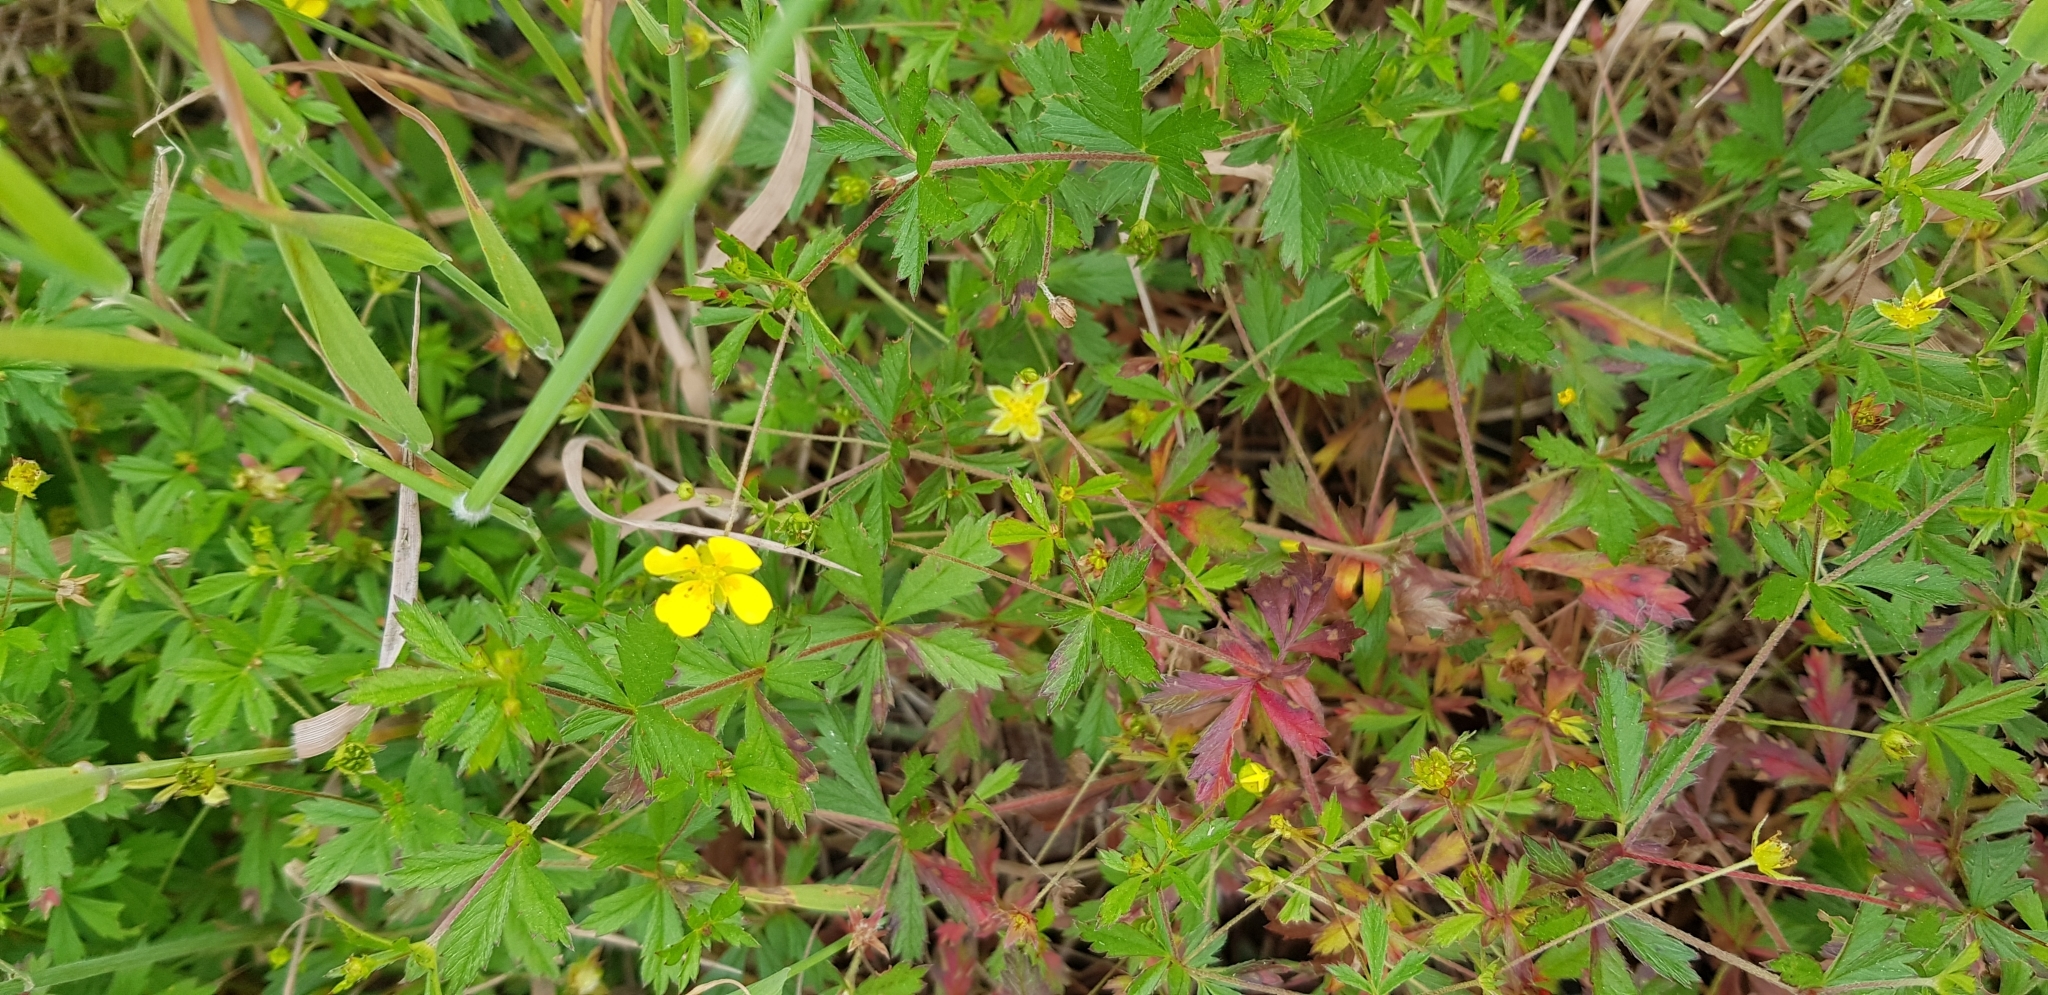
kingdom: Plantae
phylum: Tracheophyta
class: Magnoliopsida
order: Rosales
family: Rosaceae
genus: Potentilla
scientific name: Potentilla erecta
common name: Tormentil
